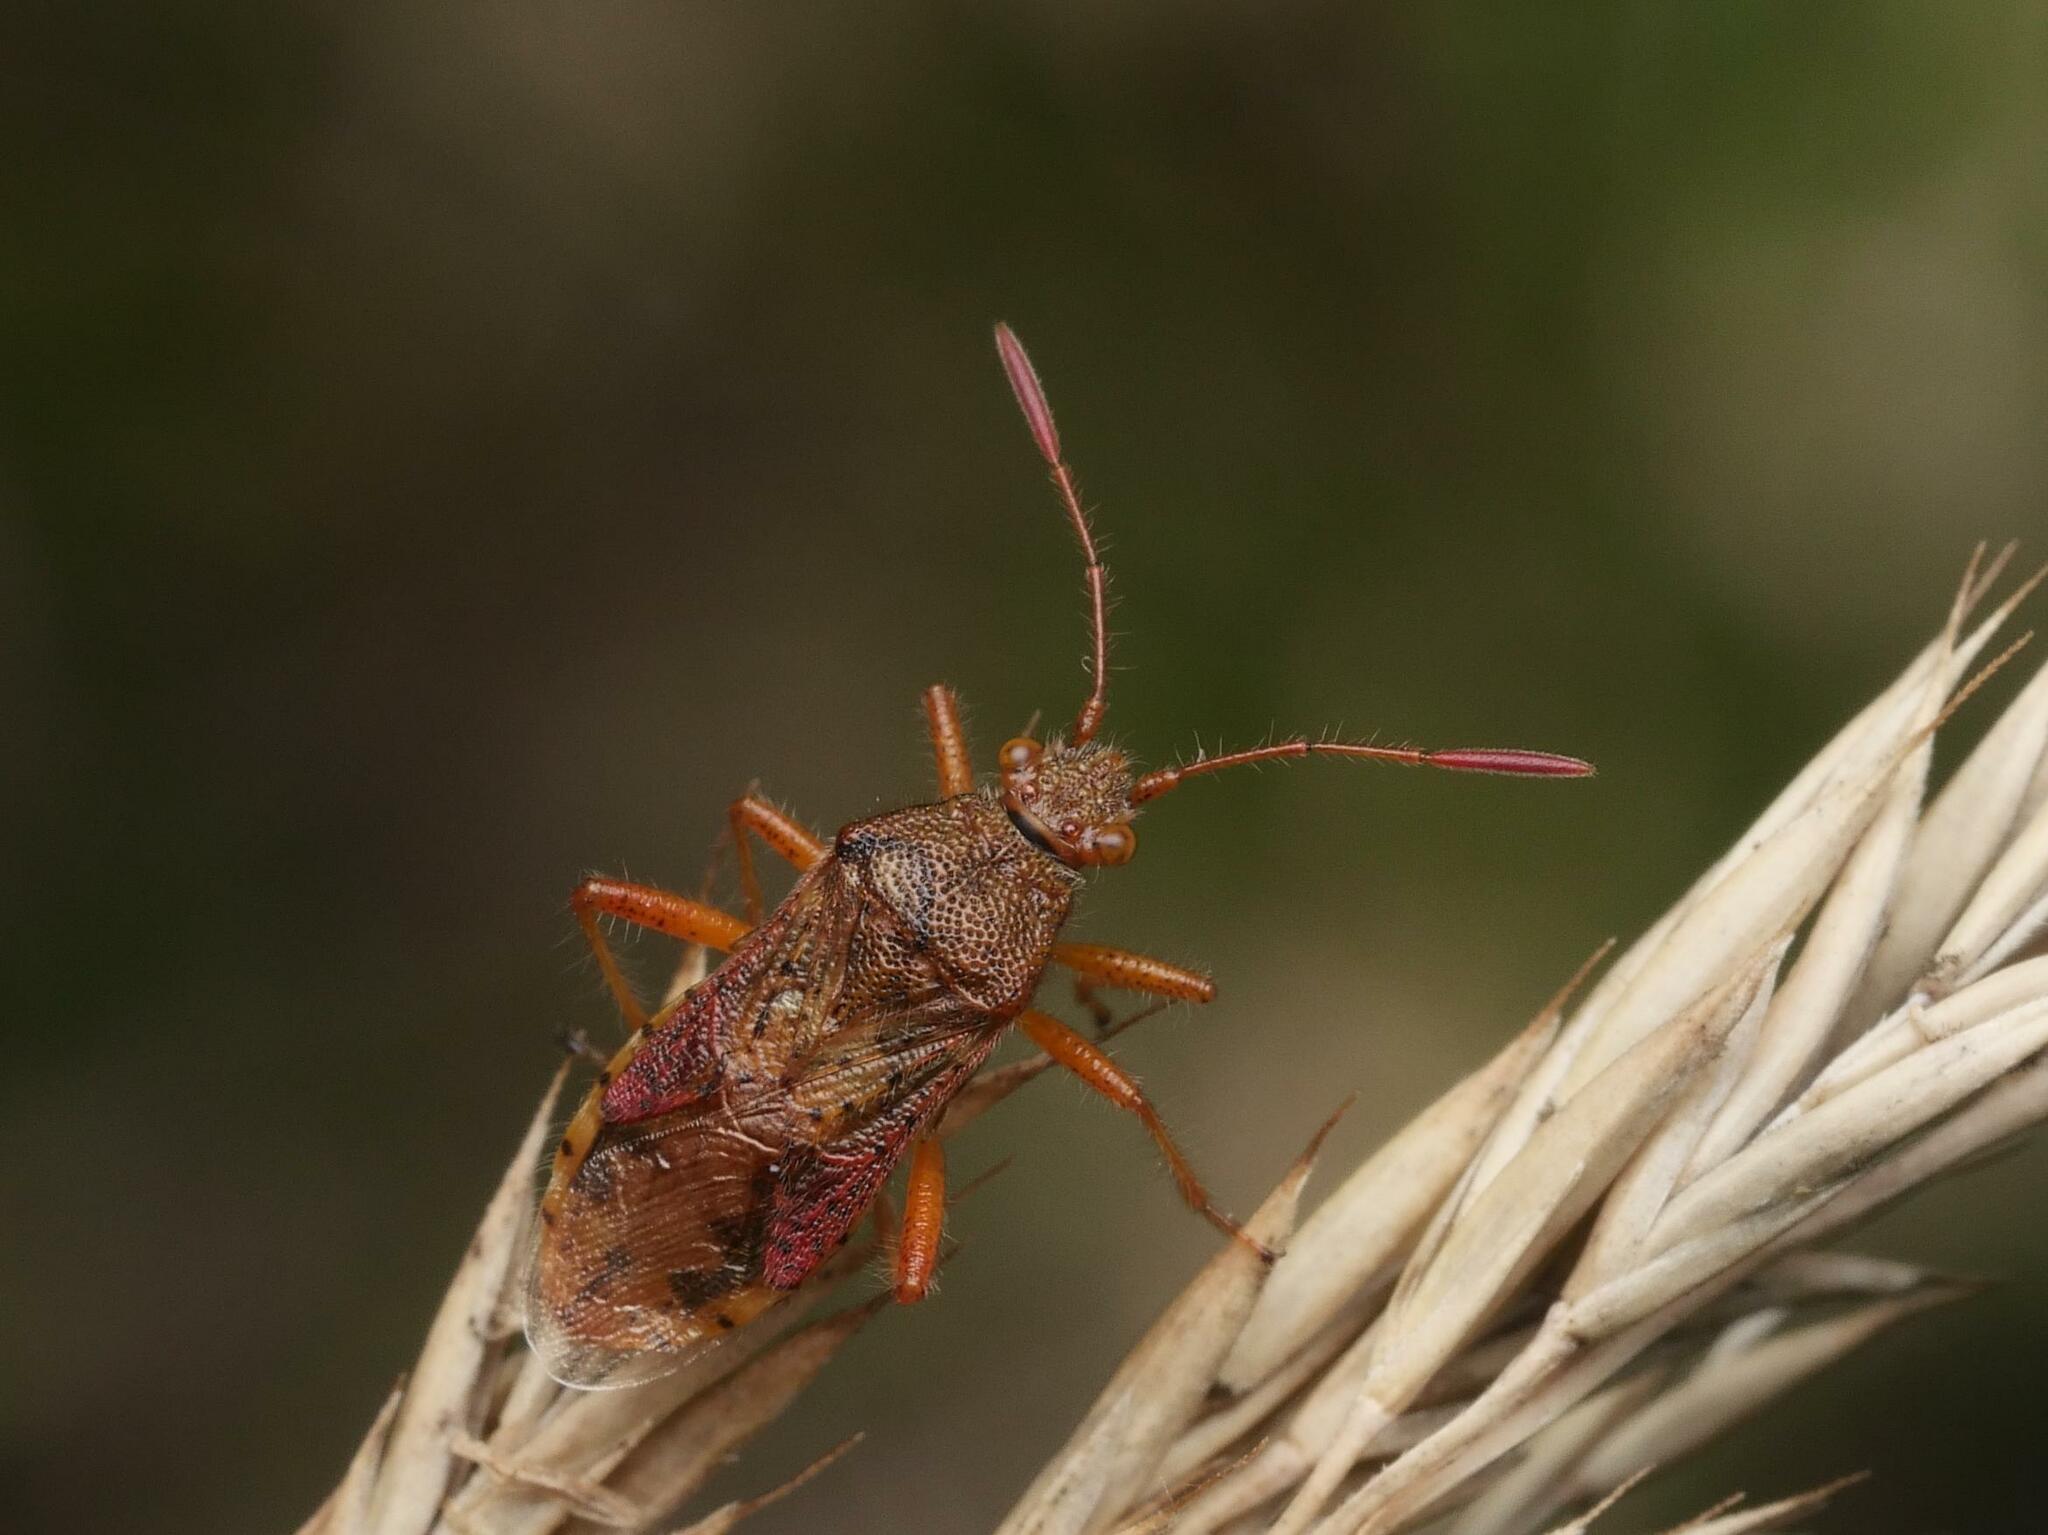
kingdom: Animalia
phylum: Arthropoda
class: Insecta
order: Hemiptera
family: Rhopalidae
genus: Rhopalus
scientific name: Rhopalus maculatus
